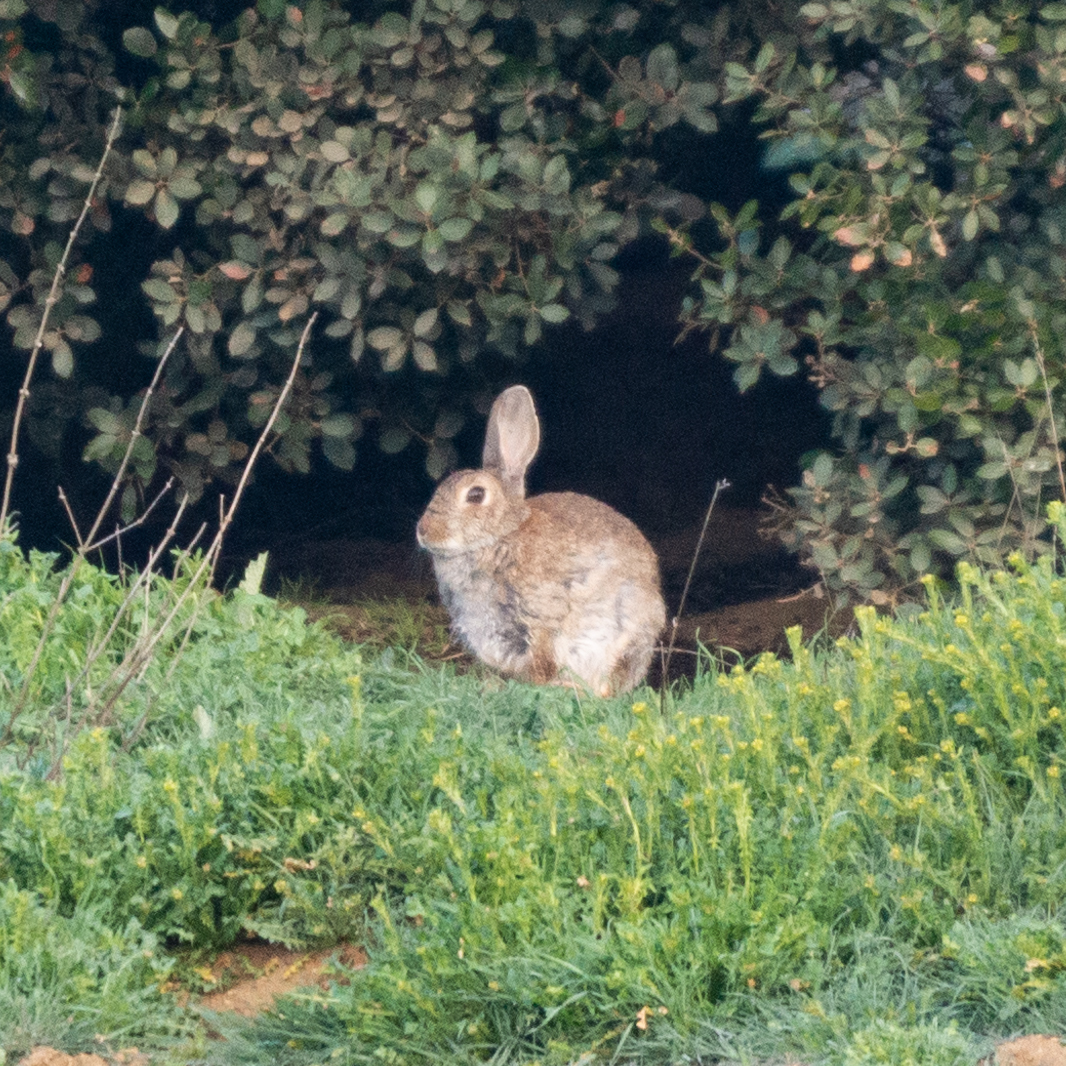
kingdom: Animalia
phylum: Chordata
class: Mammalia
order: Lagomorpha
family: Leporidae
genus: Oryctolagus
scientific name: Oryctolagus cuniculus
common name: European rabbit
